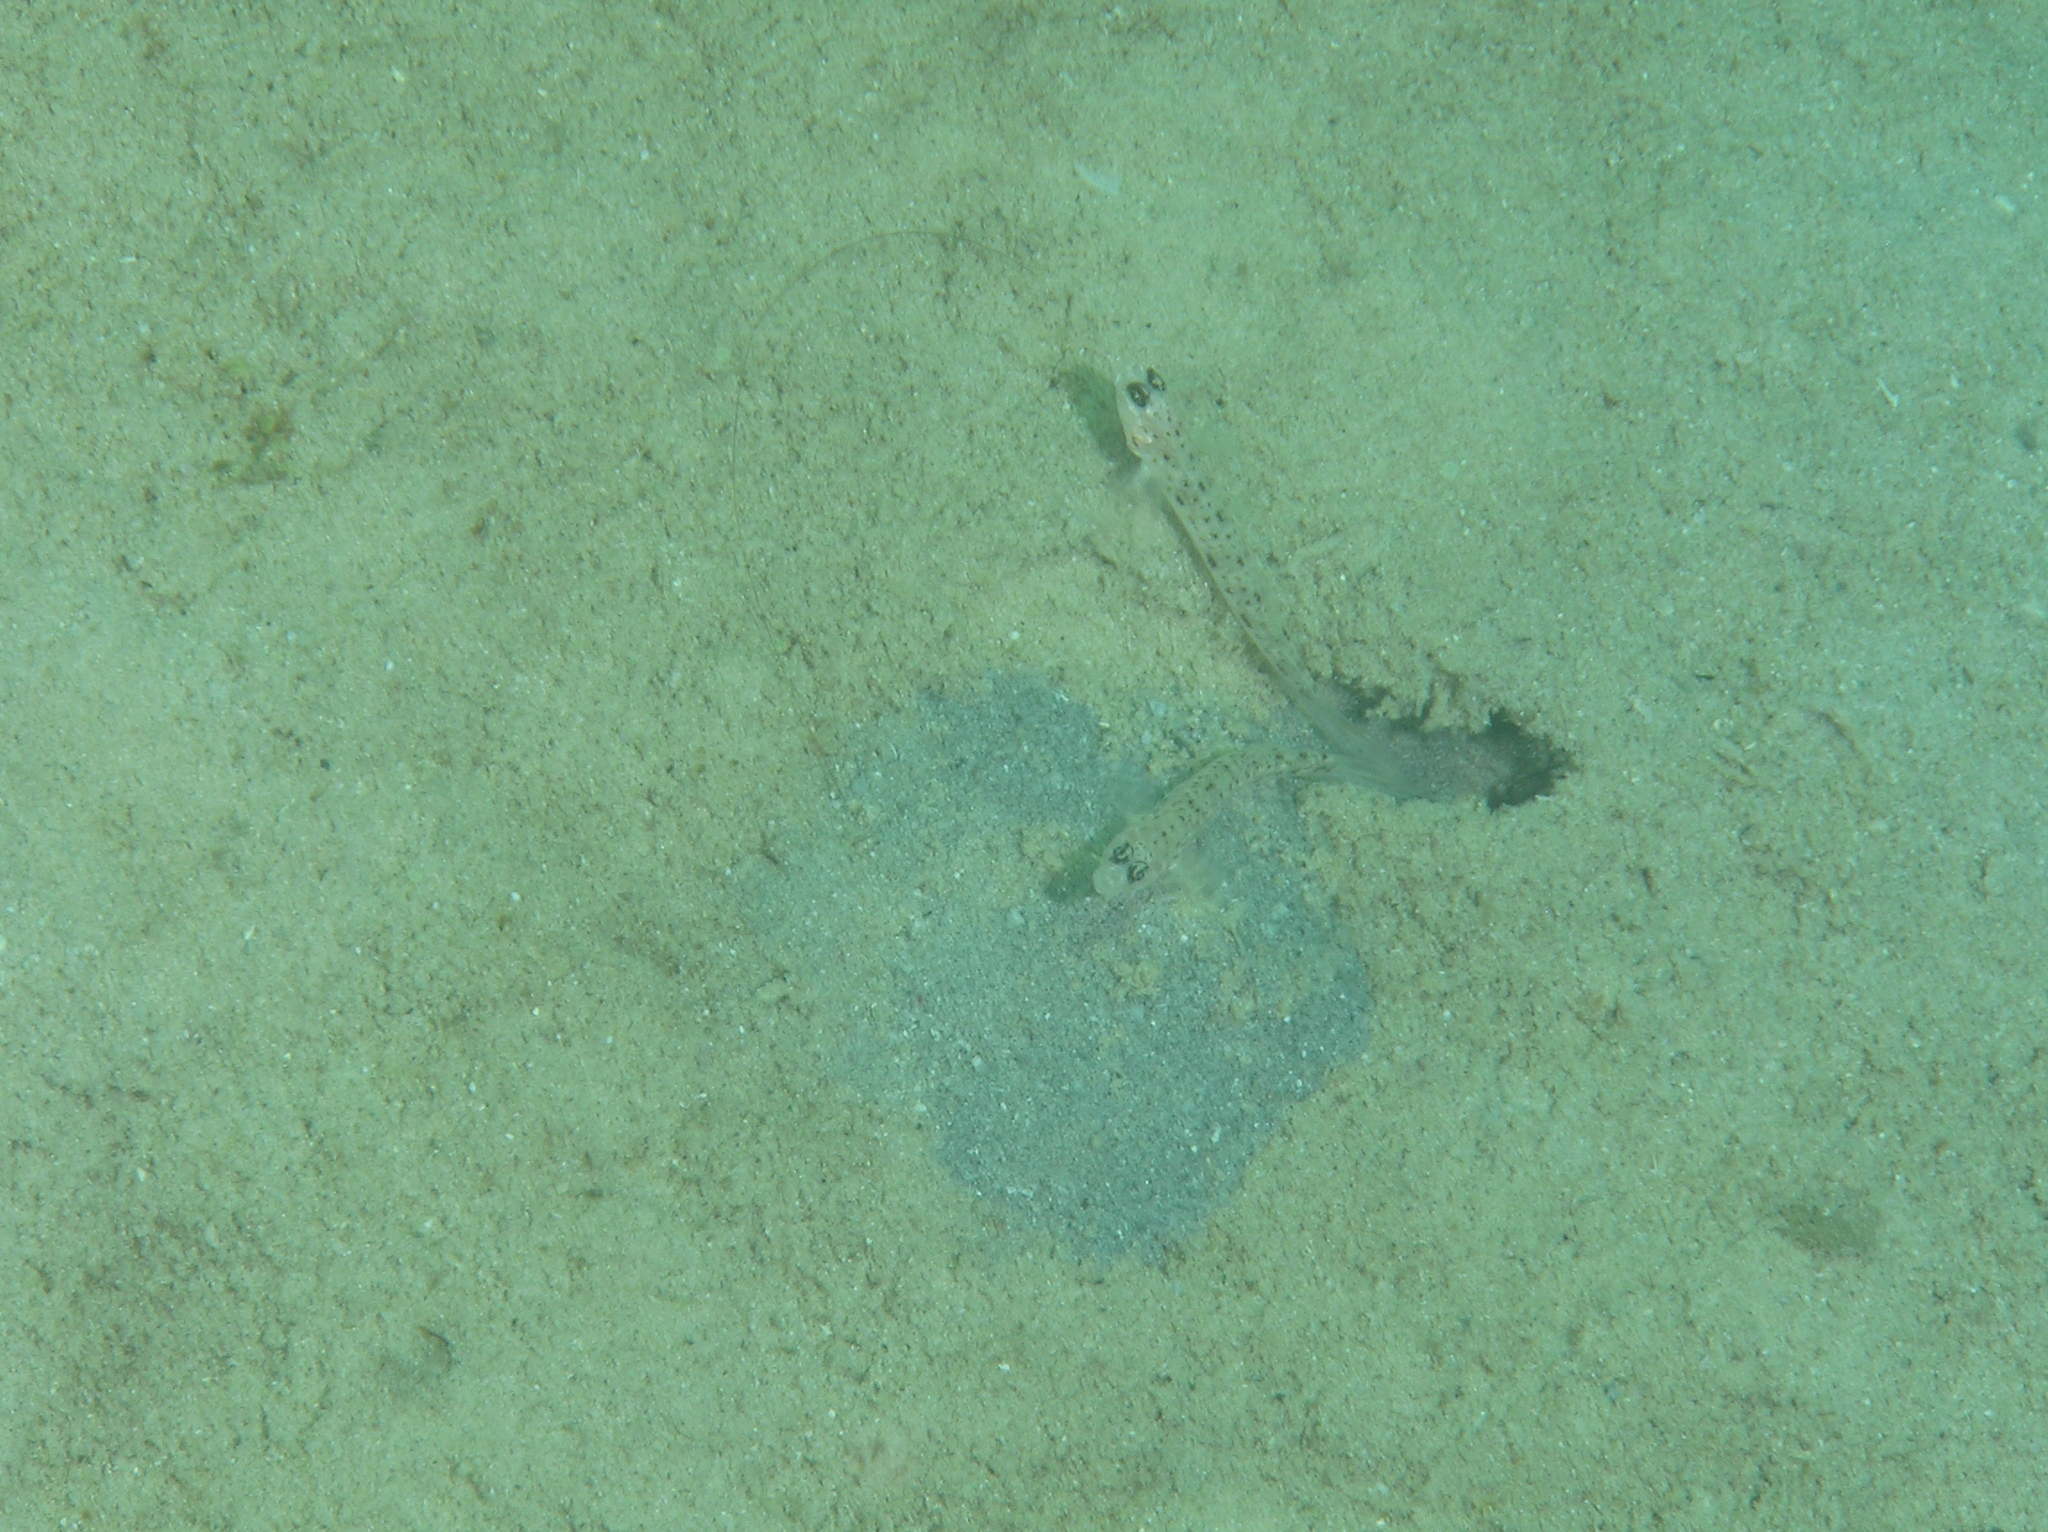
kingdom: Animalia
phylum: Chordata
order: Perciformes
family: Gobiidae
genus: Vanderhorstia
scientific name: Vanderhorstia ambanoro
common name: Ambanoro goby
